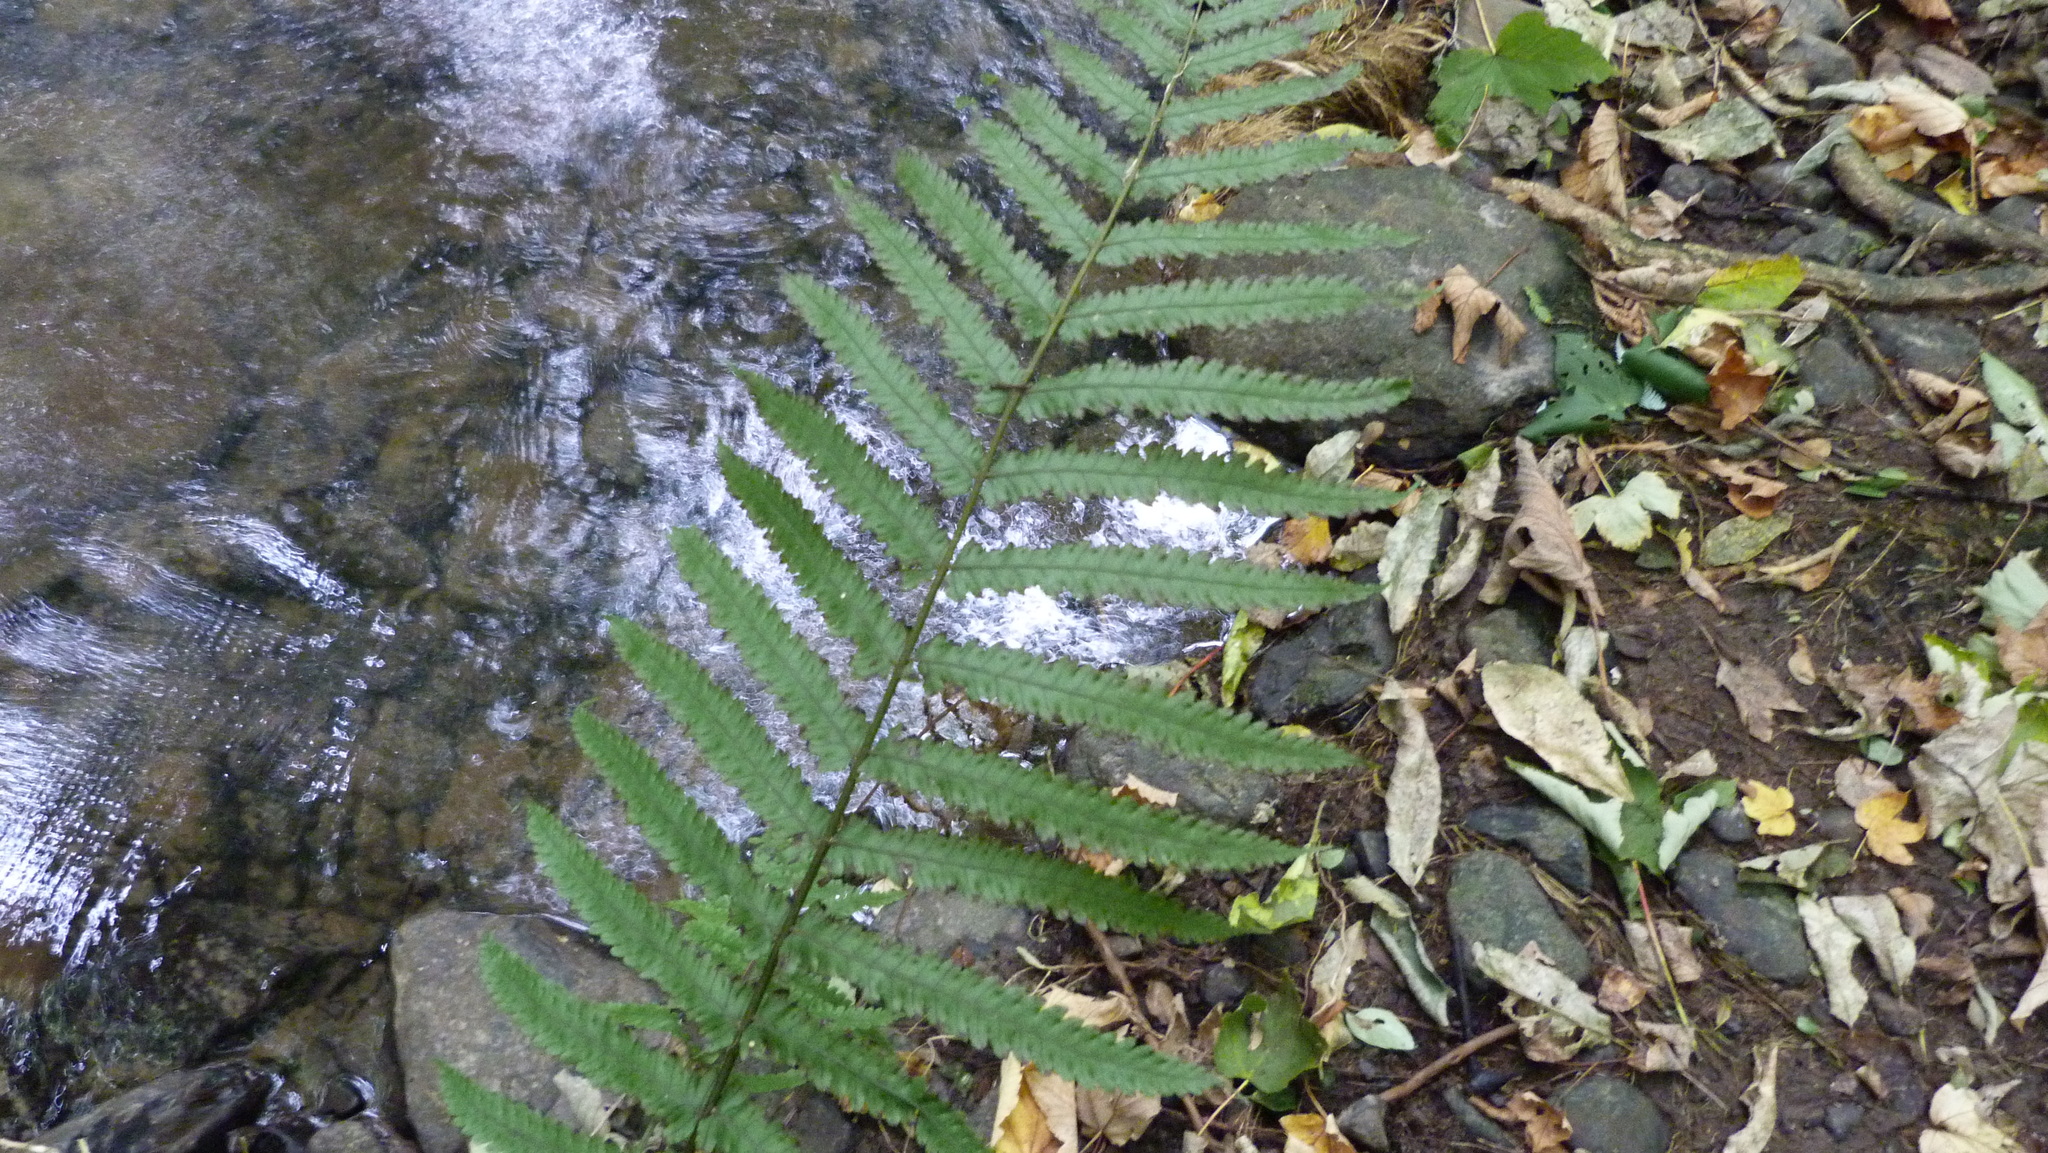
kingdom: Plantae
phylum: Tracheophyta
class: Polypodiopsida
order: Polypodiales
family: Thelypteridaceae
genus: Pakau
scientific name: Pakau pennigera
